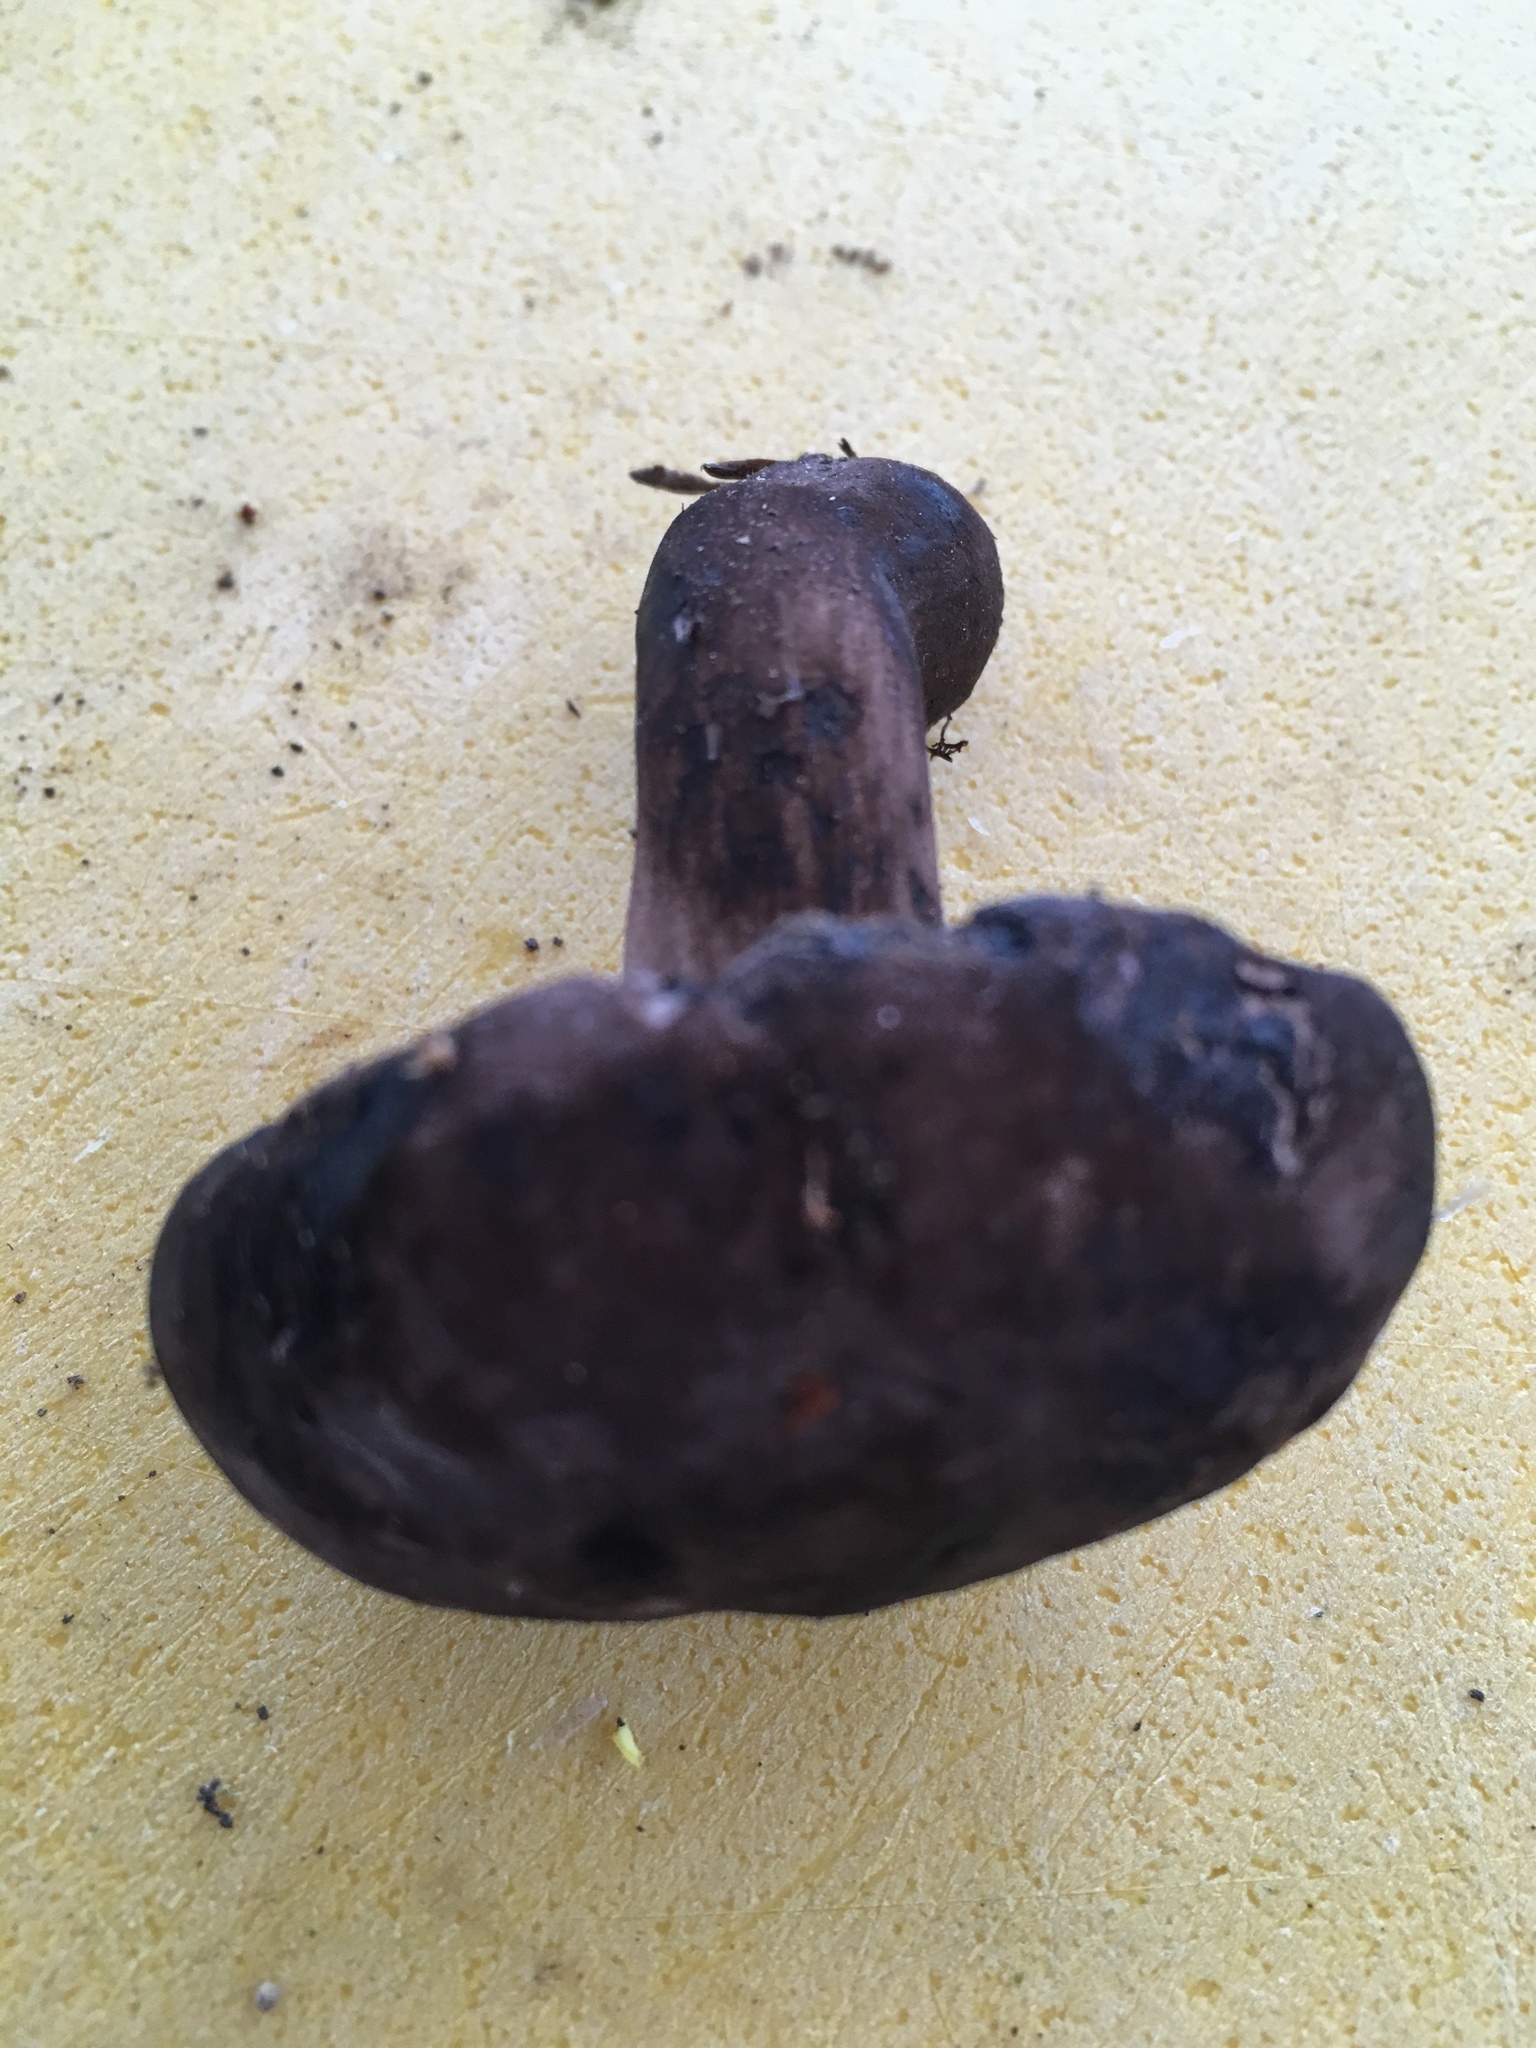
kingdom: Fungi
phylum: Basidiomycota
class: Agaricomycetes
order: Boletales
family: Boletaceae
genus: Tylopilus
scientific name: Tylopilus alboater
